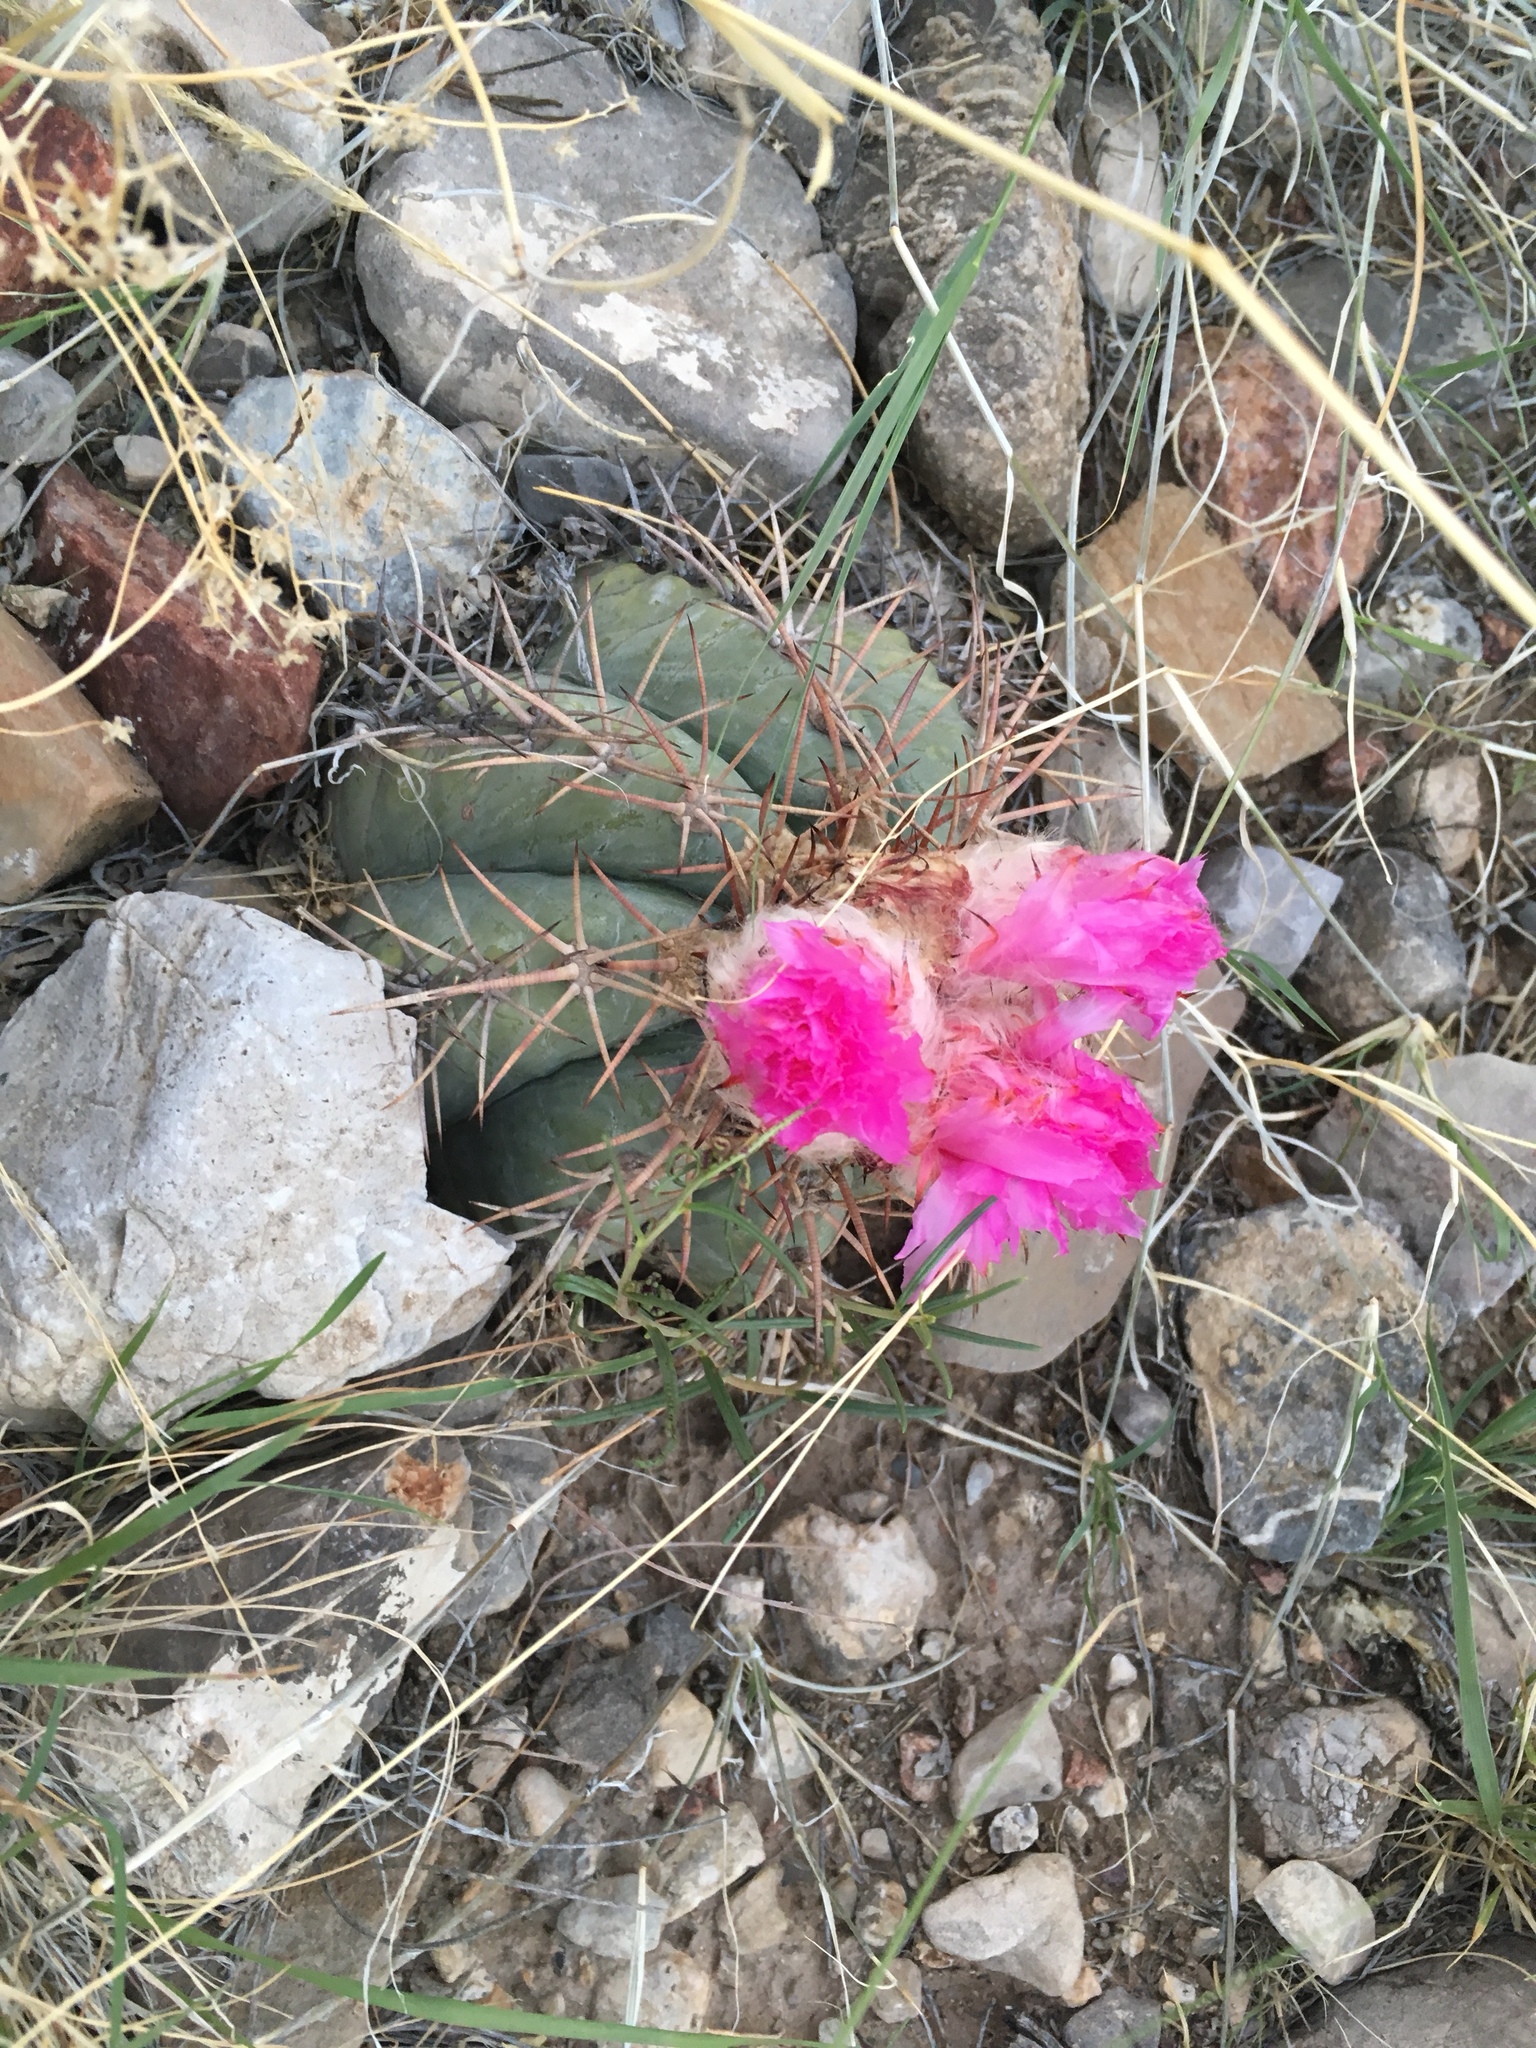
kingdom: Plantae
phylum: Tracheophyta
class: Magnoliopsida
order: Caryophyllales
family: Cactaceae
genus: Echinocactus
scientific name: Echinocactus horizonthalonius
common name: Devilshead
